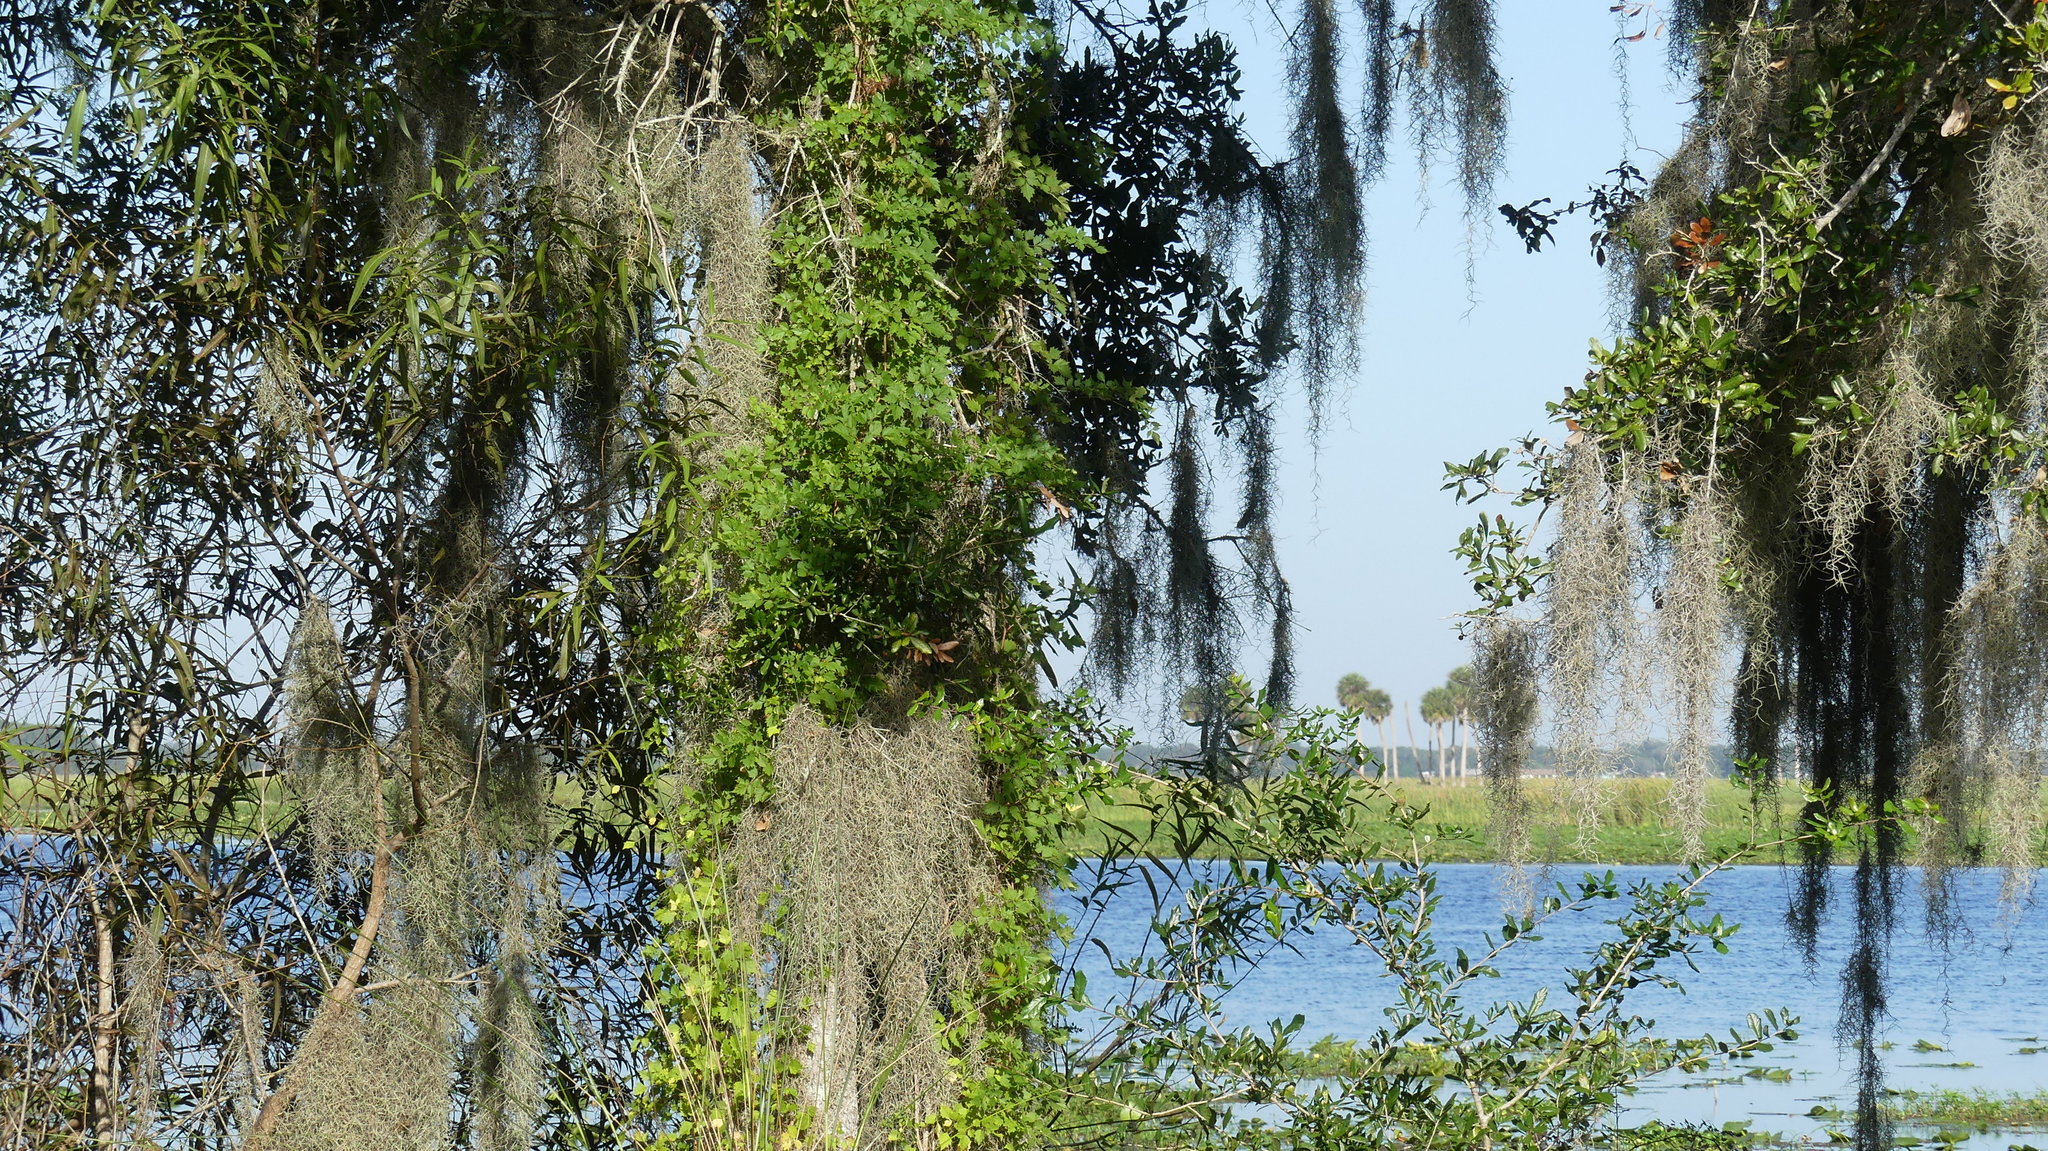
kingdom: Plantae
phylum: Tracheophyta
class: Magnoliopsida
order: Vitales
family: Vitaceae
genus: Nekemias
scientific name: Nekemias arborea
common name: Peppervine
